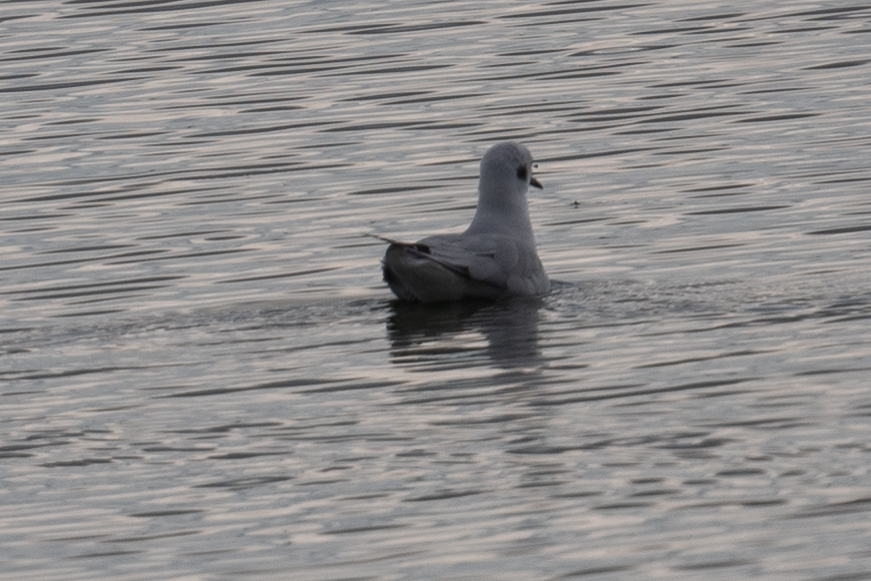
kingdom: Animalia
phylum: Chordata
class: Aves
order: Charadriiformes
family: Laridae
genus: Chroicocephalus
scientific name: Chroicocephalus philadelphia
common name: Bonaparte's gull
